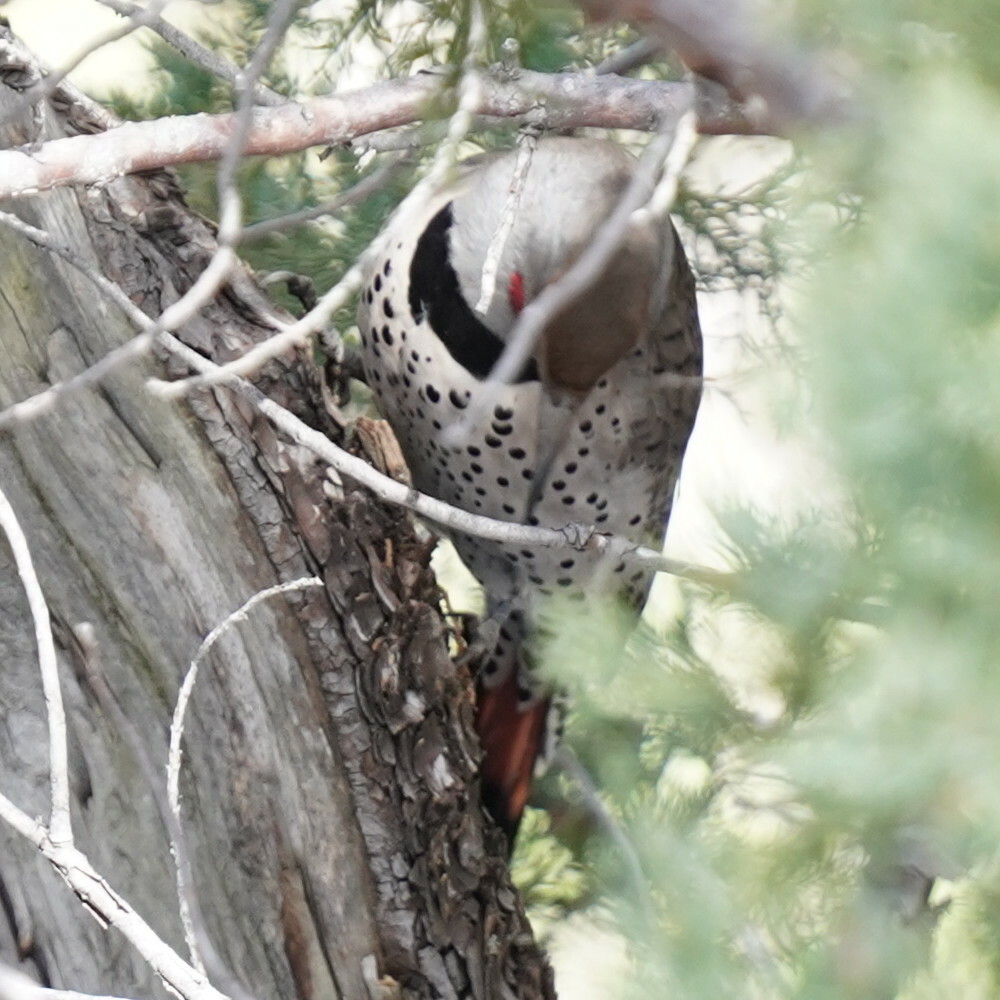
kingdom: Animalia
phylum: Chordata
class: Aves
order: Piciformes
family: Picidae
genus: Colaptes
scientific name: Colaptes auratus
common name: Northern flicker
